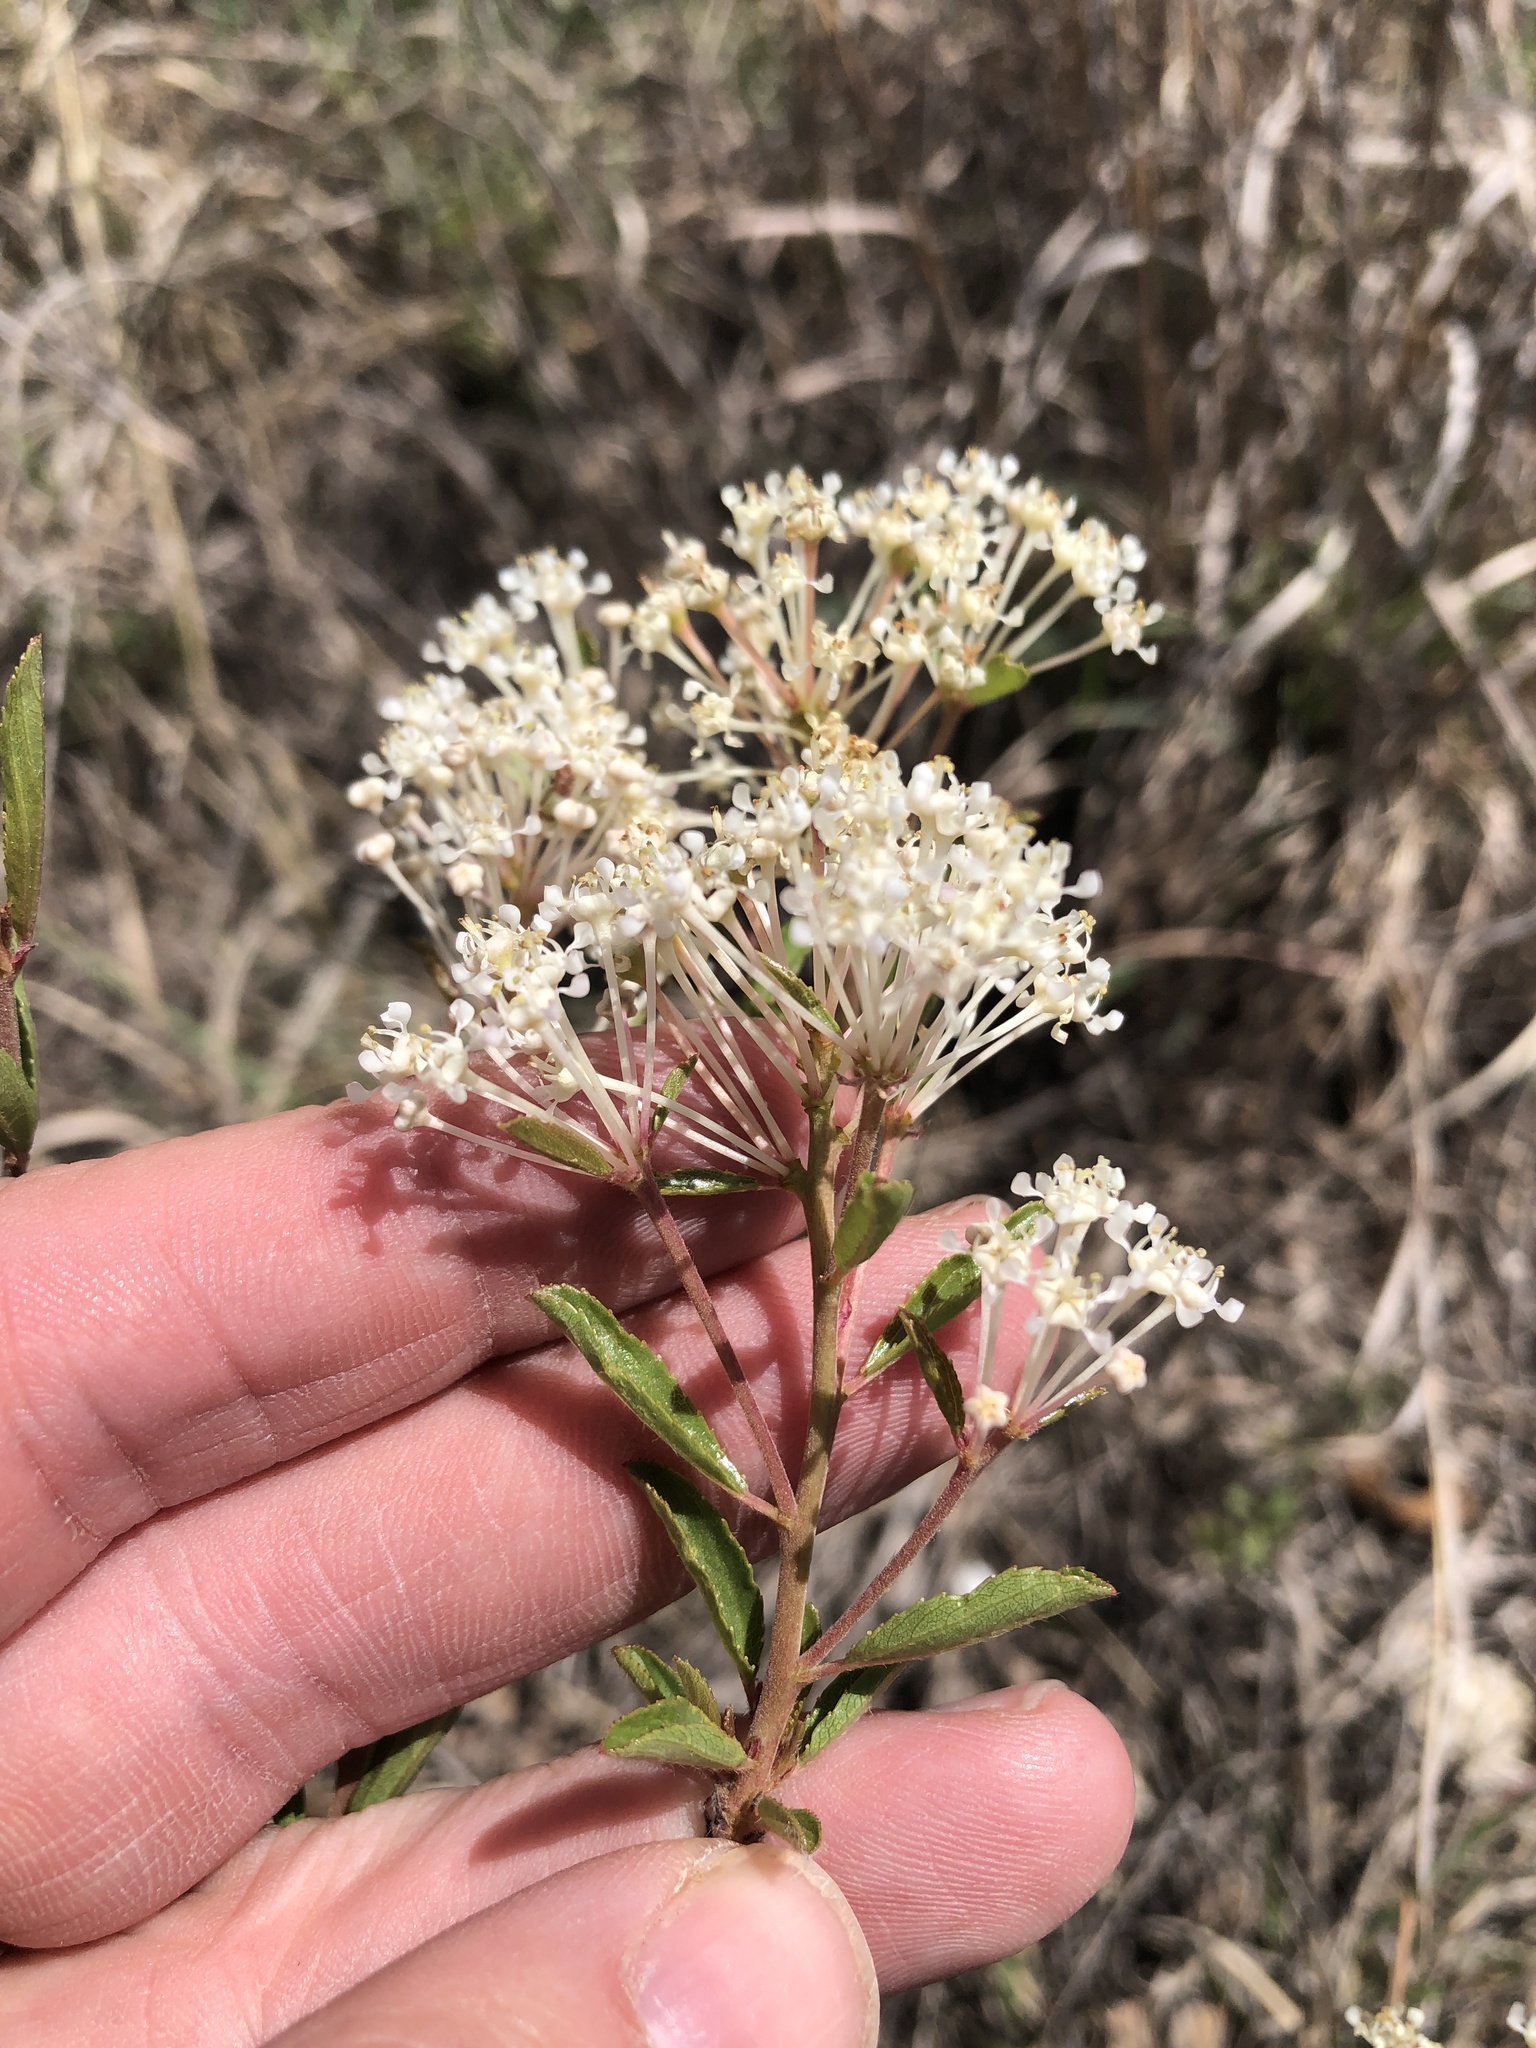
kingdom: Plantae
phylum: Tracheophyta
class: Magnoliopsida
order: Rosales
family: Rhamnaceae
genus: Ceanothus
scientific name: Ceanothus herbaceus
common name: Inland ceanothus
